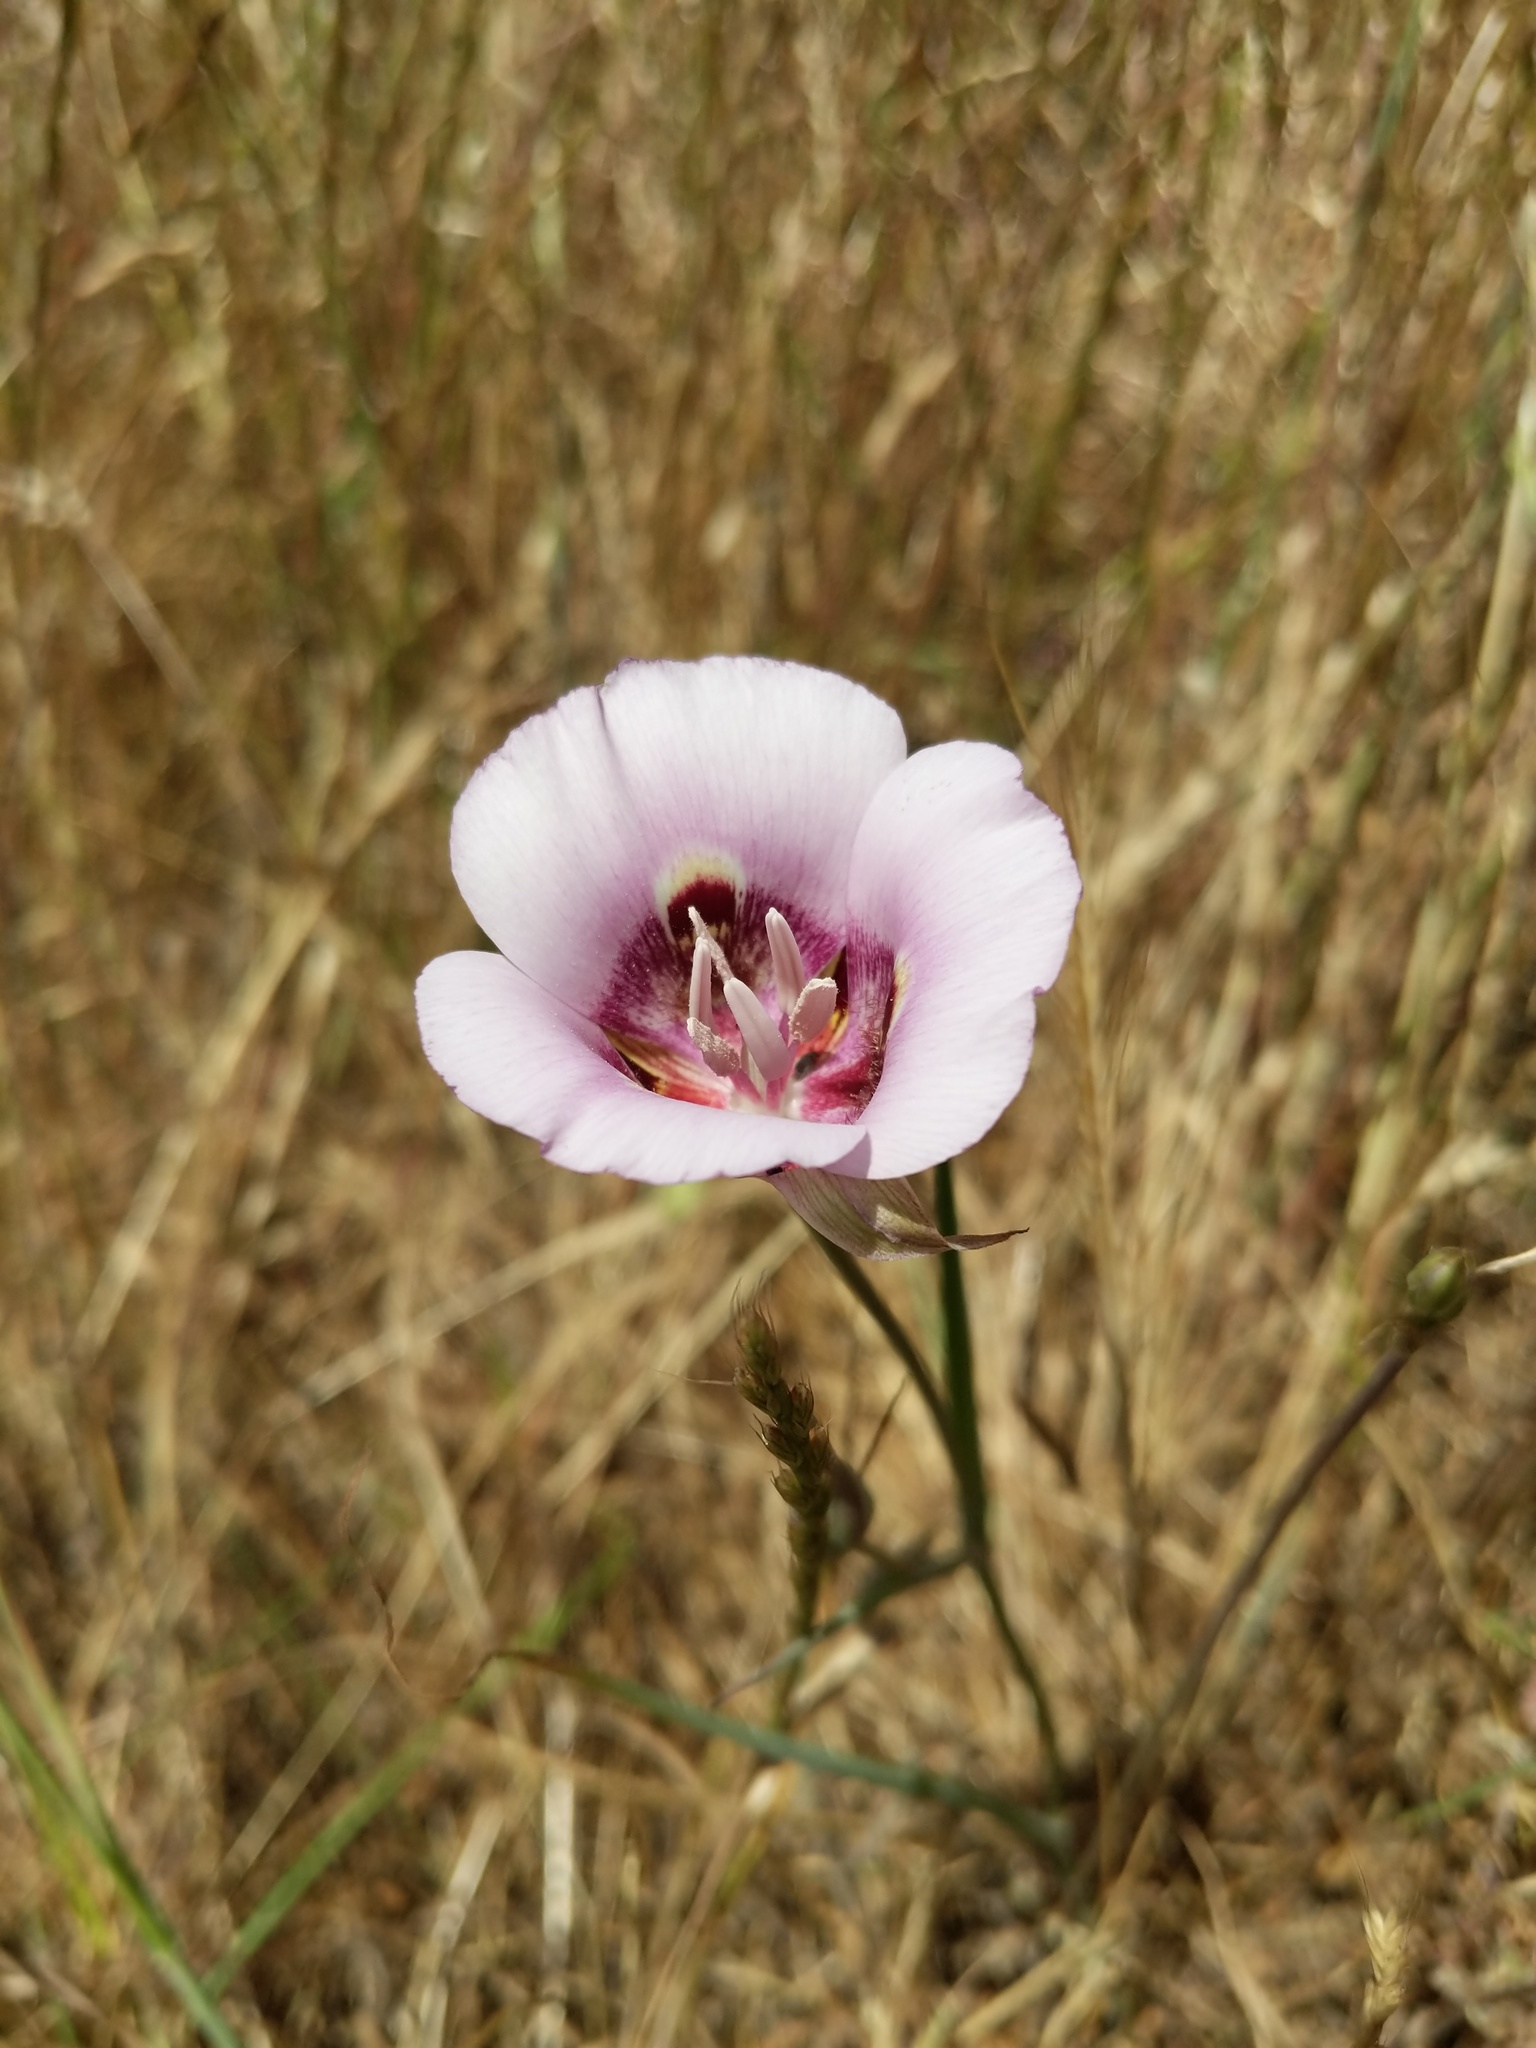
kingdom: Plantae
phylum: Tracheophyta
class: Liliopsida
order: Liliales
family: Liliaceae
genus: Calochortus
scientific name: Calochortus argillosus
